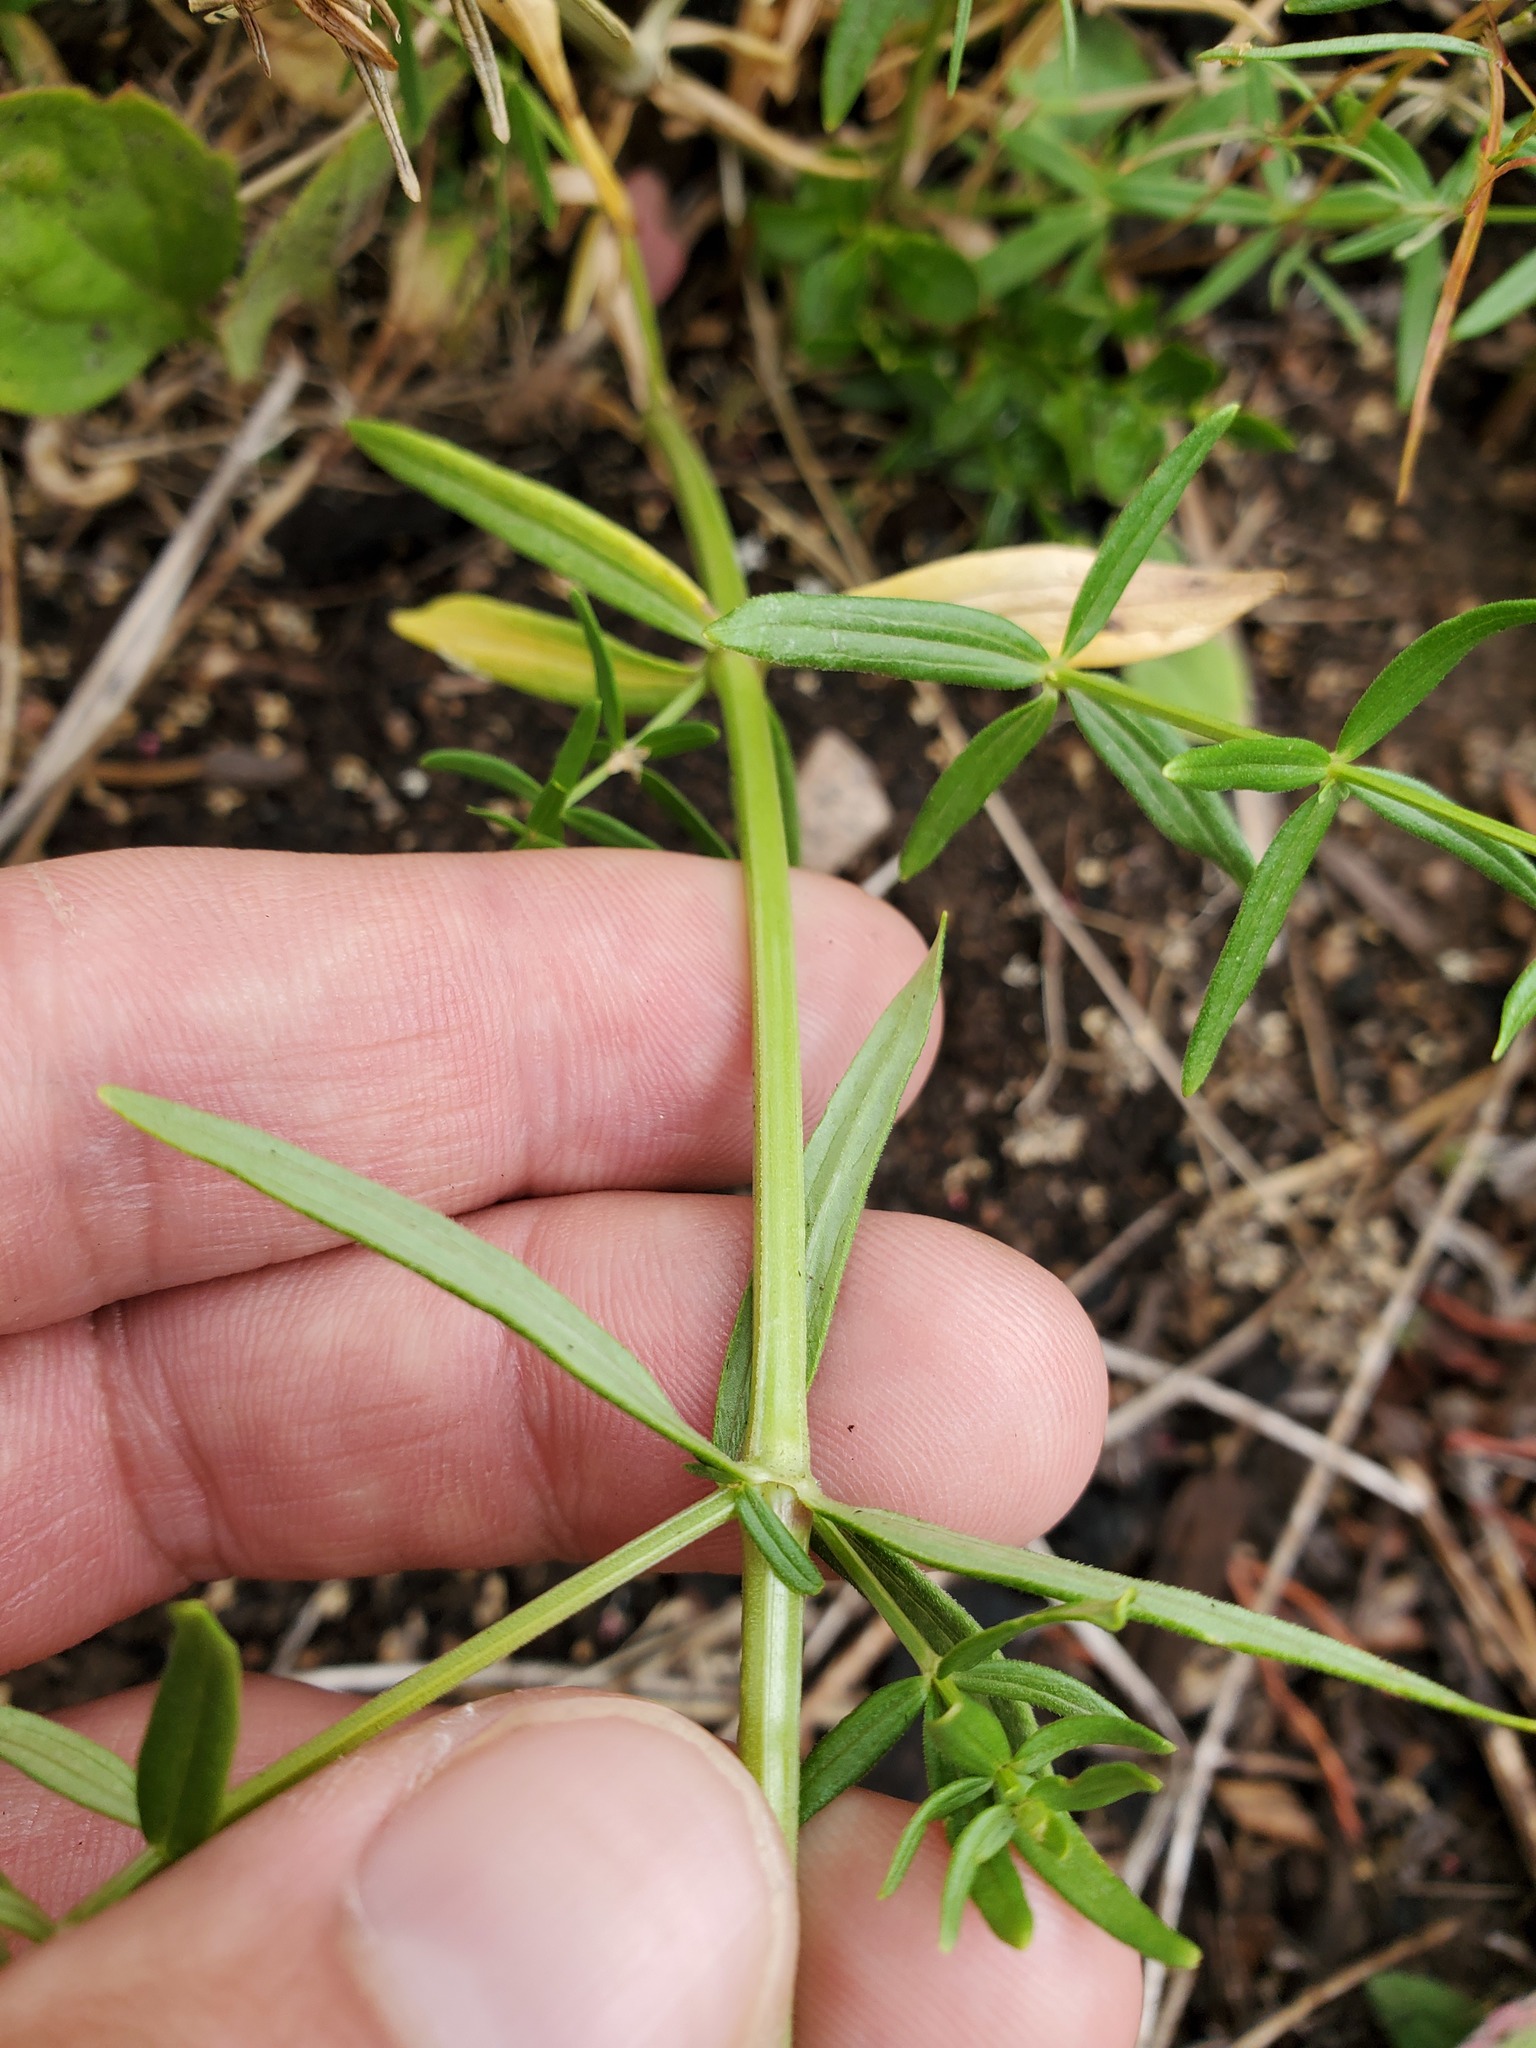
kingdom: Plantae
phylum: Tracheophyta
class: Magnoliopsida
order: Gentianales
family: Rubiaceae
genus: Galium
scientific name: Galium boreale
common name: Northern bedstraw
